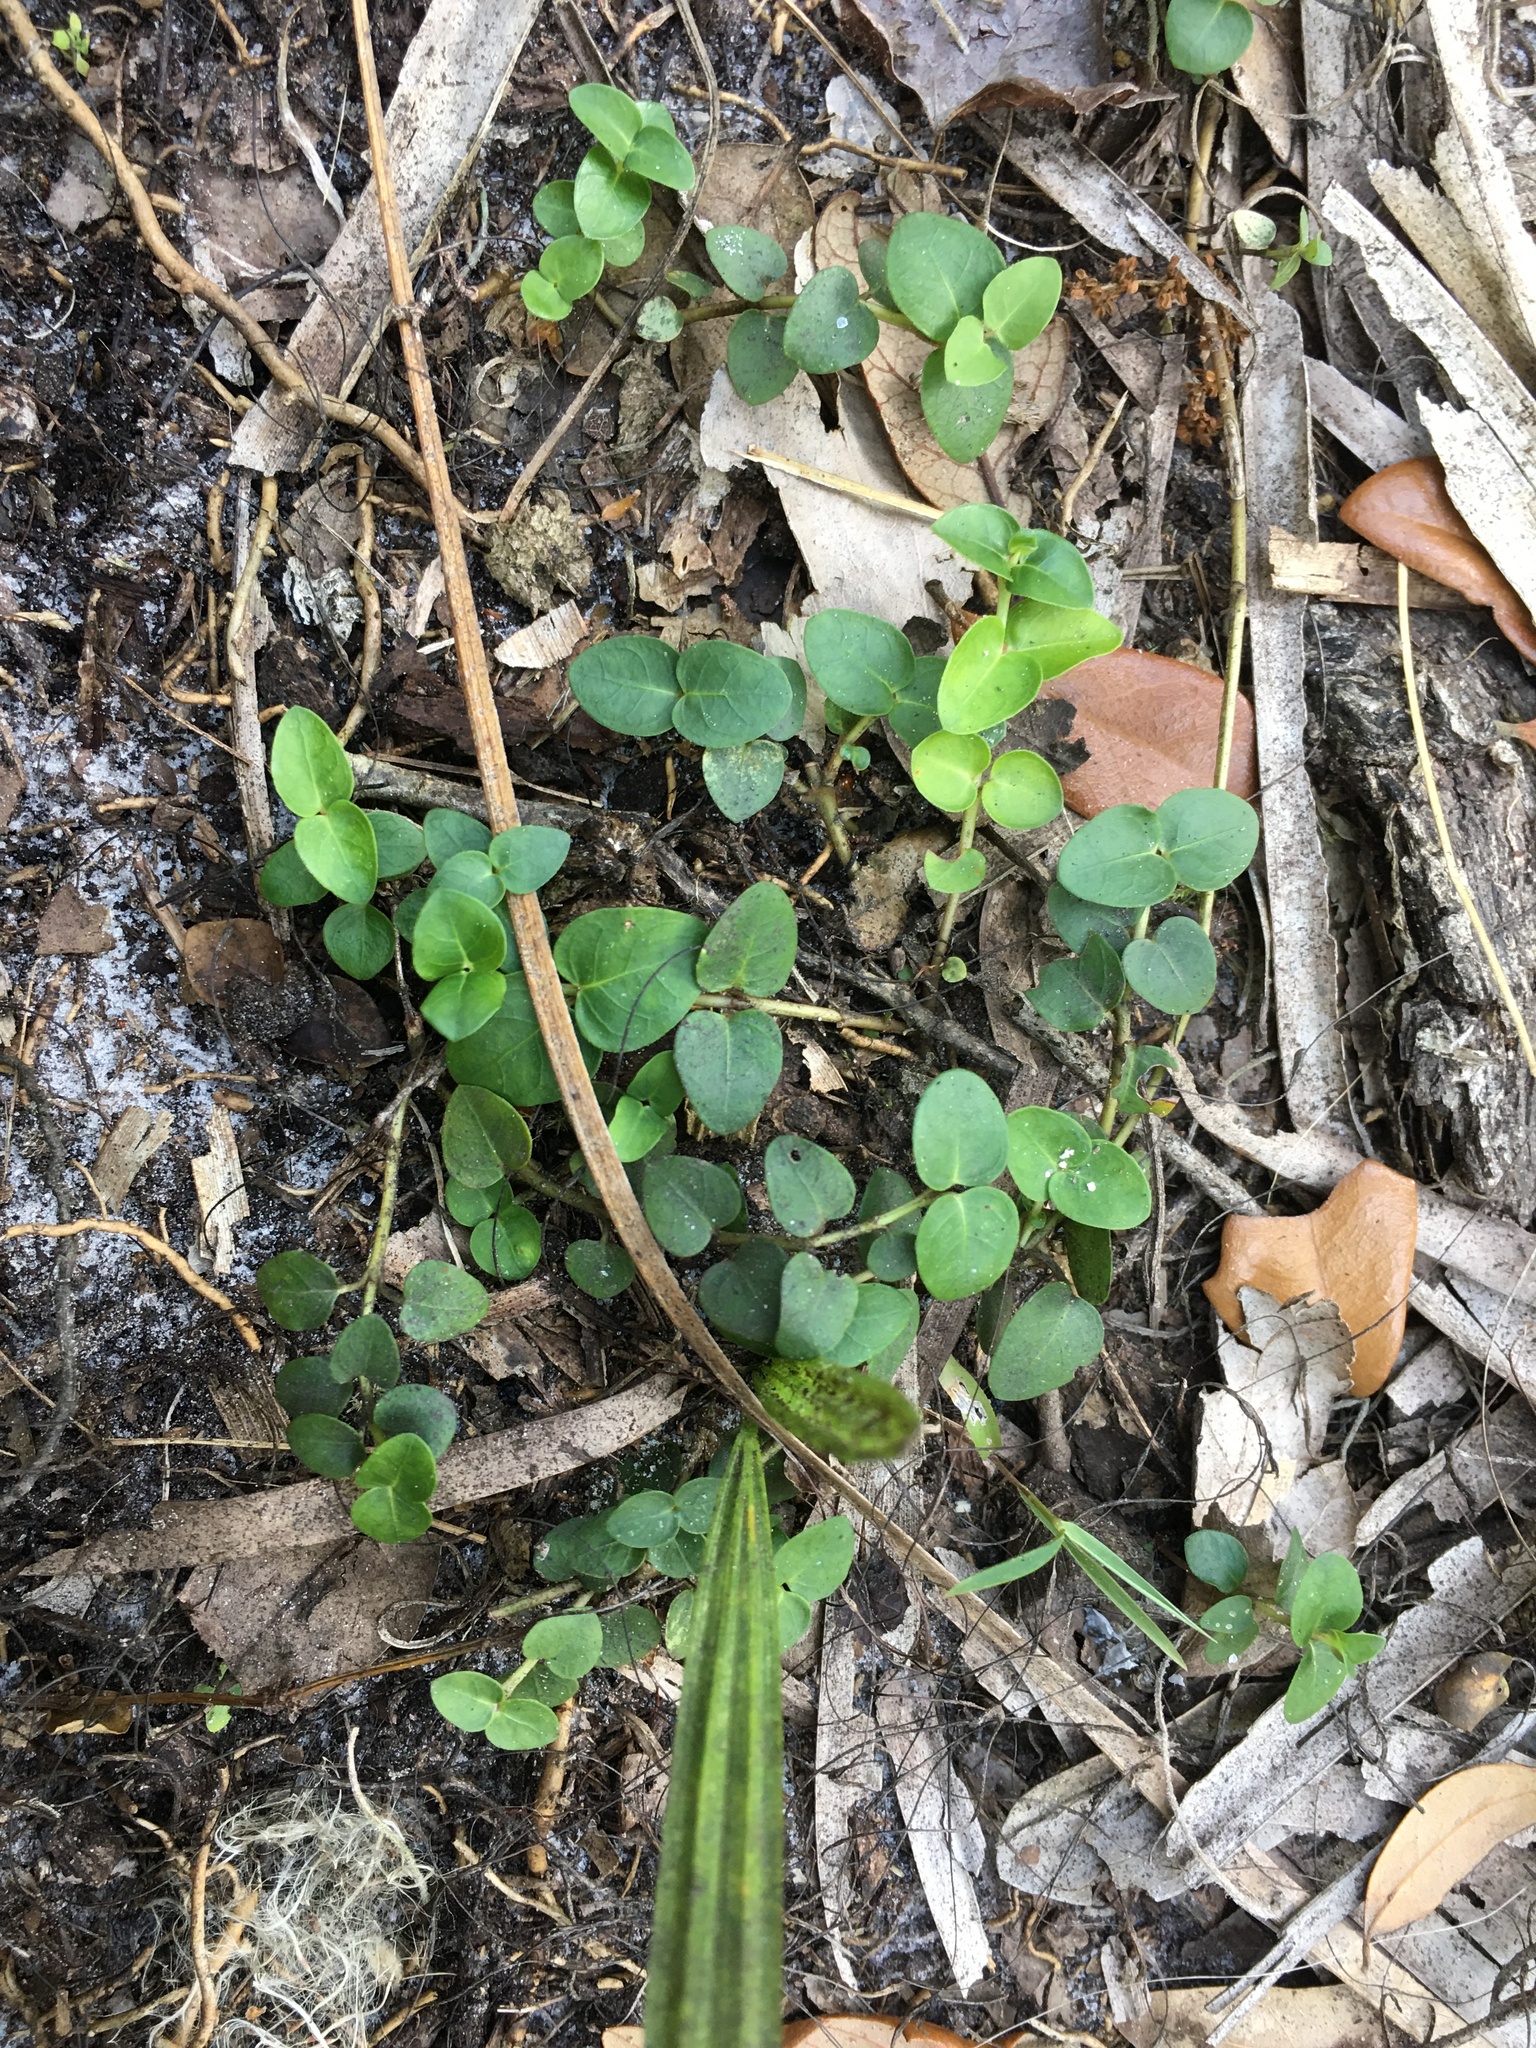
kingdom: Plantae
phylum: Tracheophyta
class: Magnoliopsida
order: Gentianales
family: Rubiaceae
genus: Mitchella
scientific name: Mitchella repens
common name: Partridge-berry
